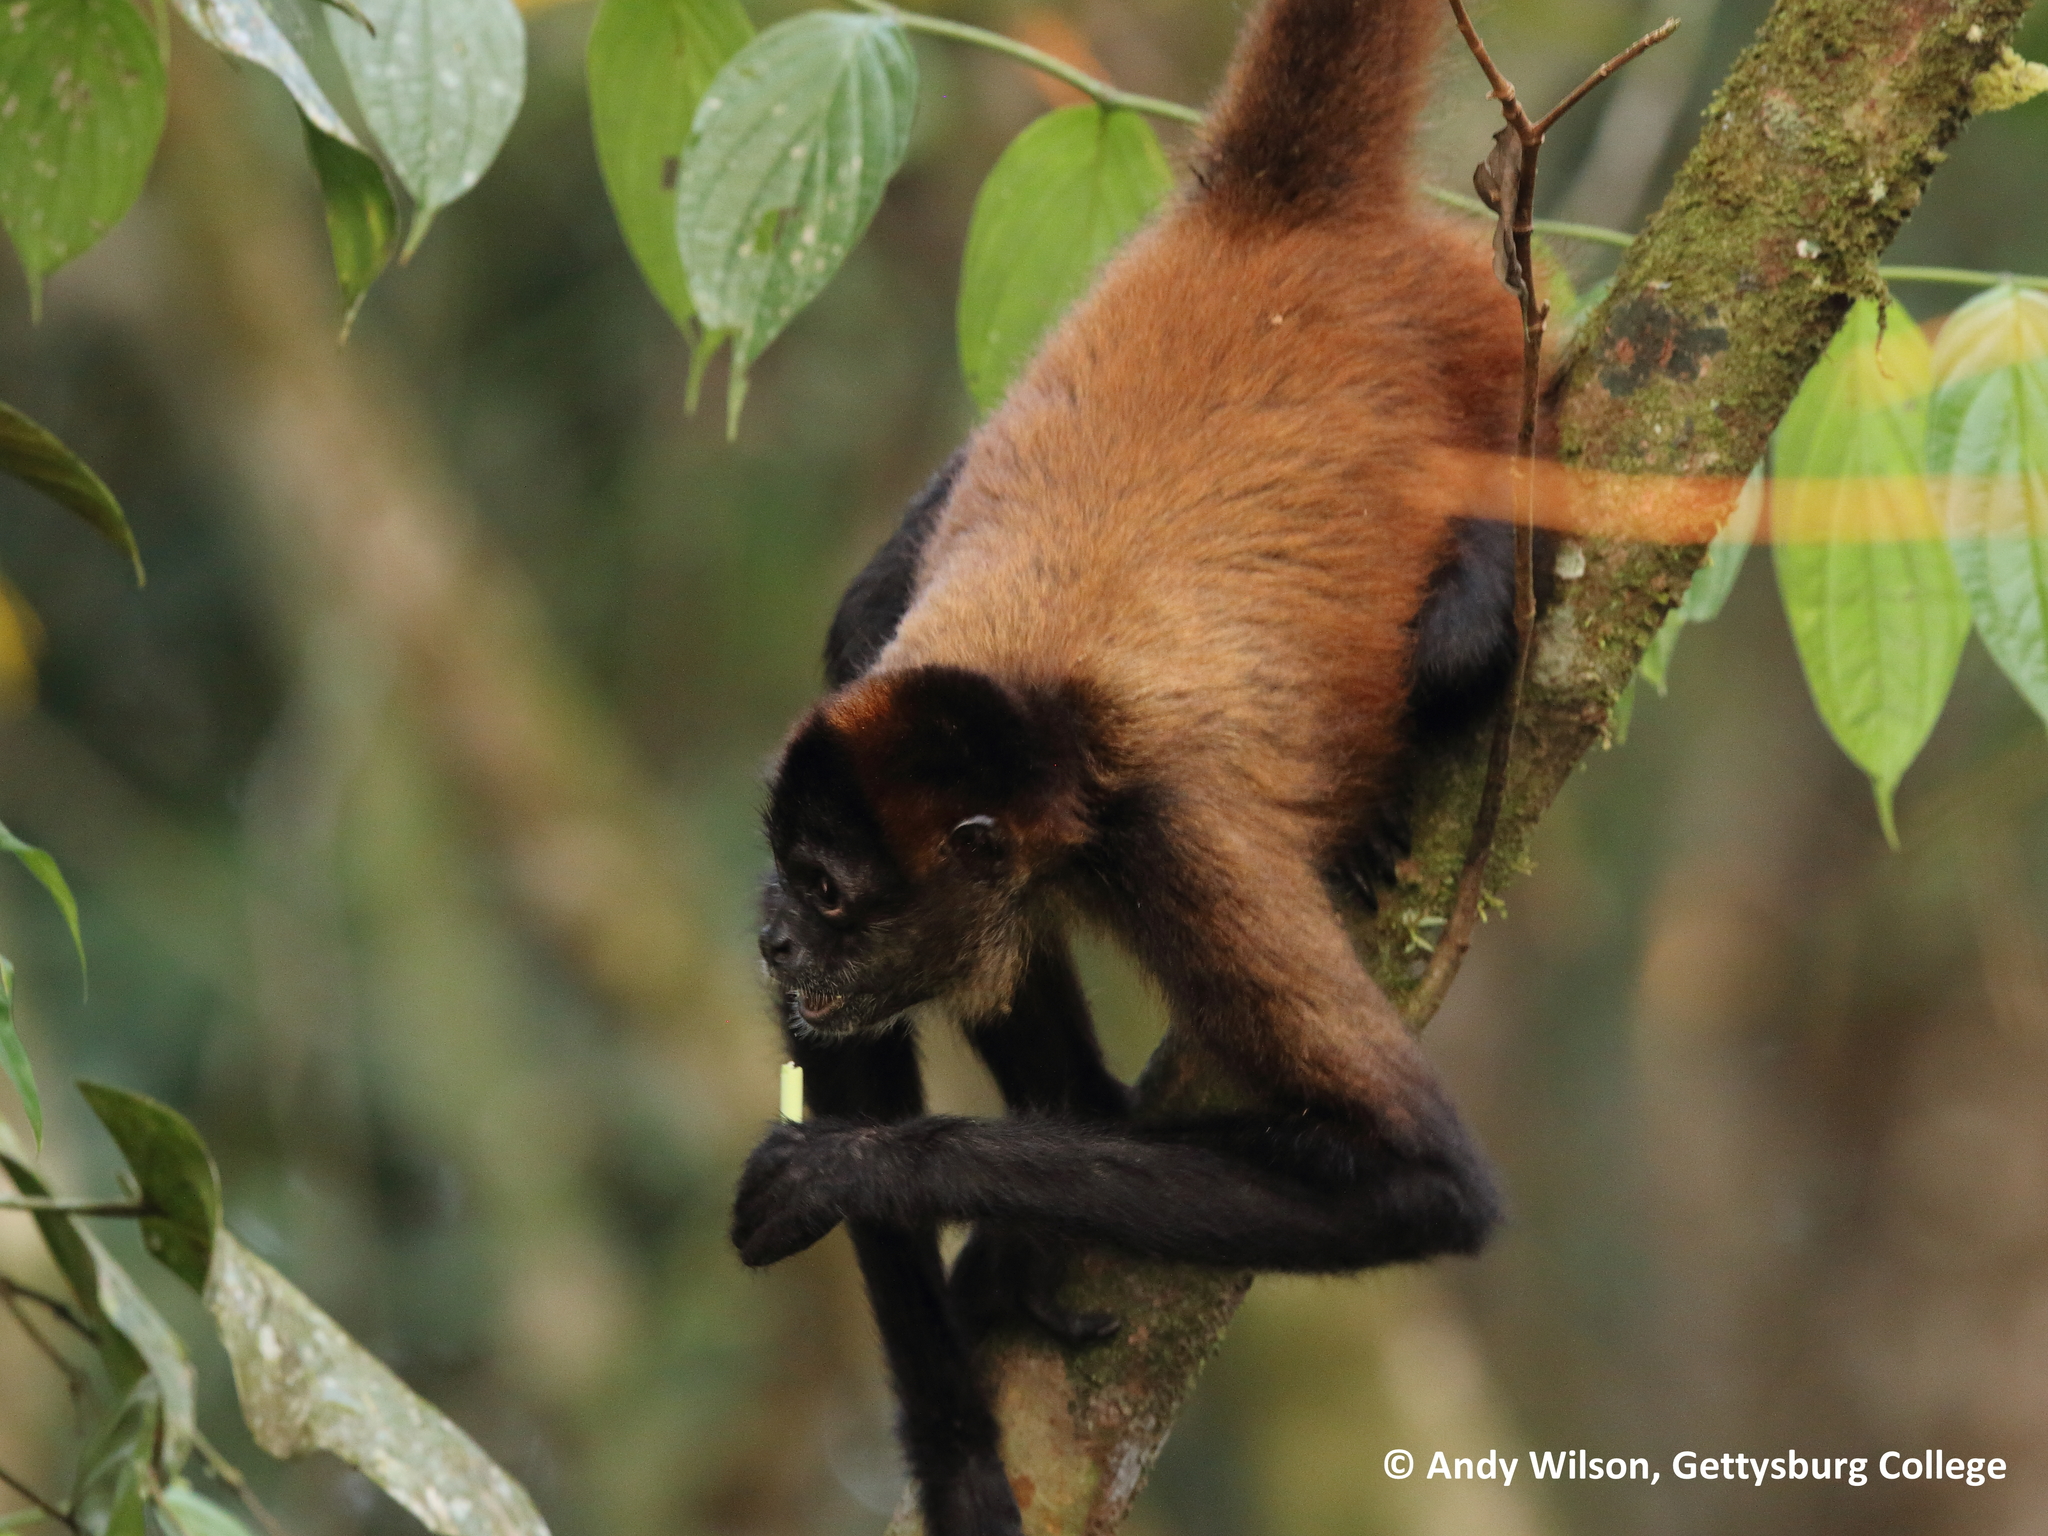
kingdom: Animalia
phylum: Chordata
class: Mammalia
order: Primates
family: Atelidae
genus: Ateles
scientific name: Ateles geoffroyi
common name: Black-handed spider monkey
